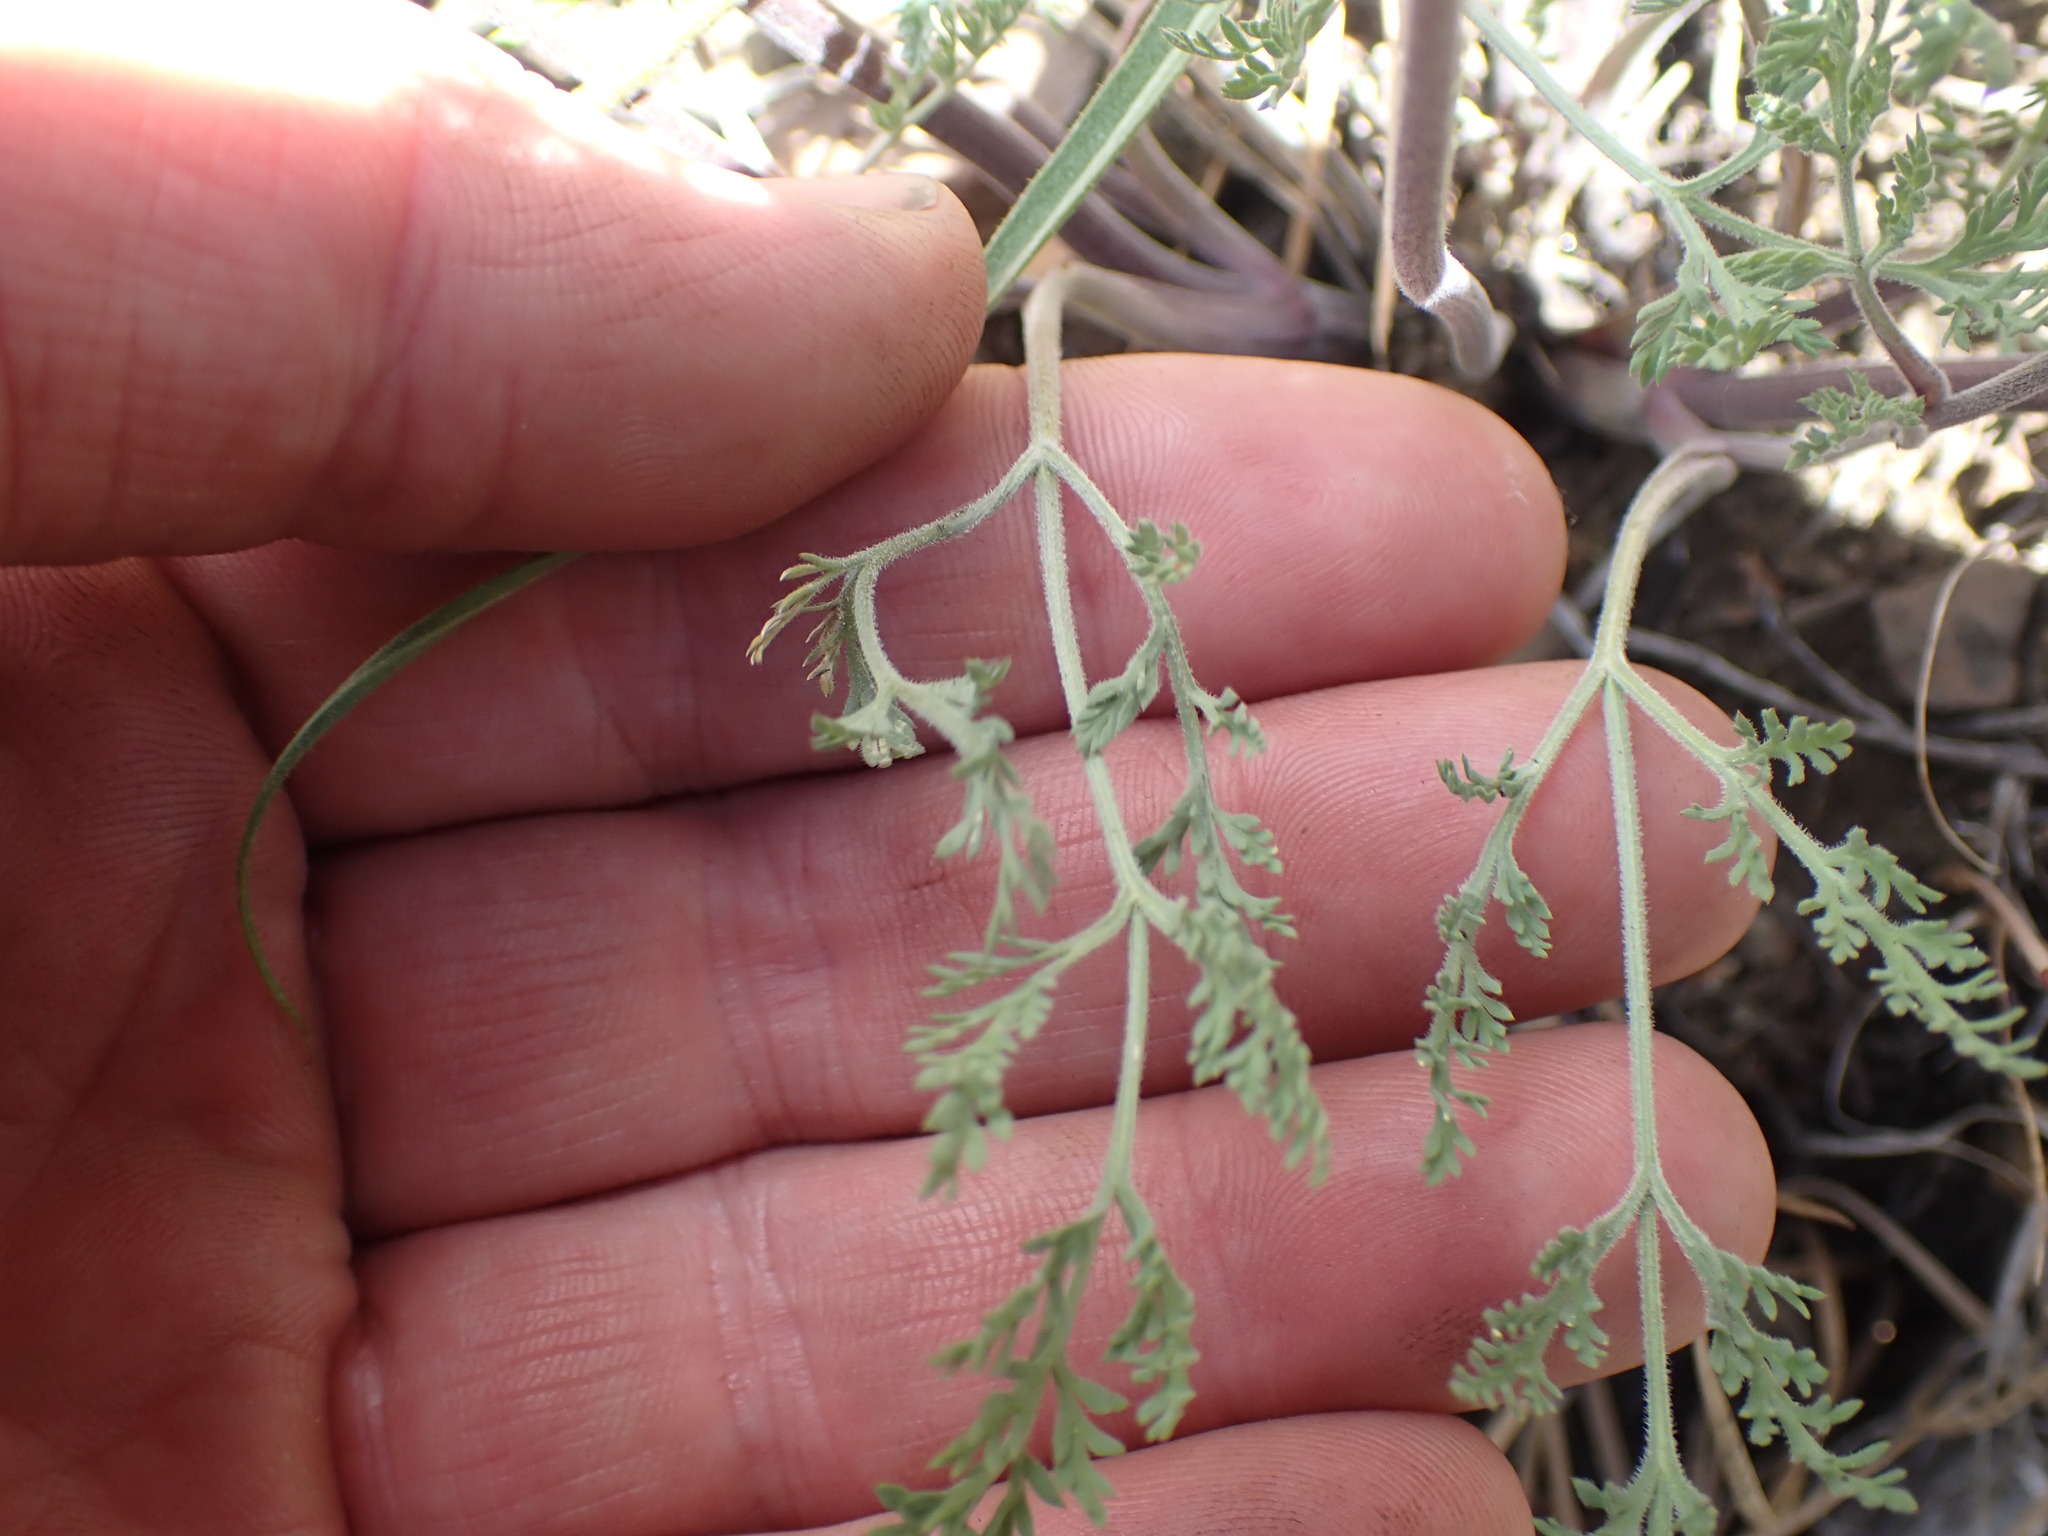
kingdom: Plantae
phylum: Tracheophyta
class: Magnoliopsida
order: Apiales
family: Apiaceae
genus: Lomatium
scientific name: Lomatium macrocarpum
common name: Big-seed biscuitroot
